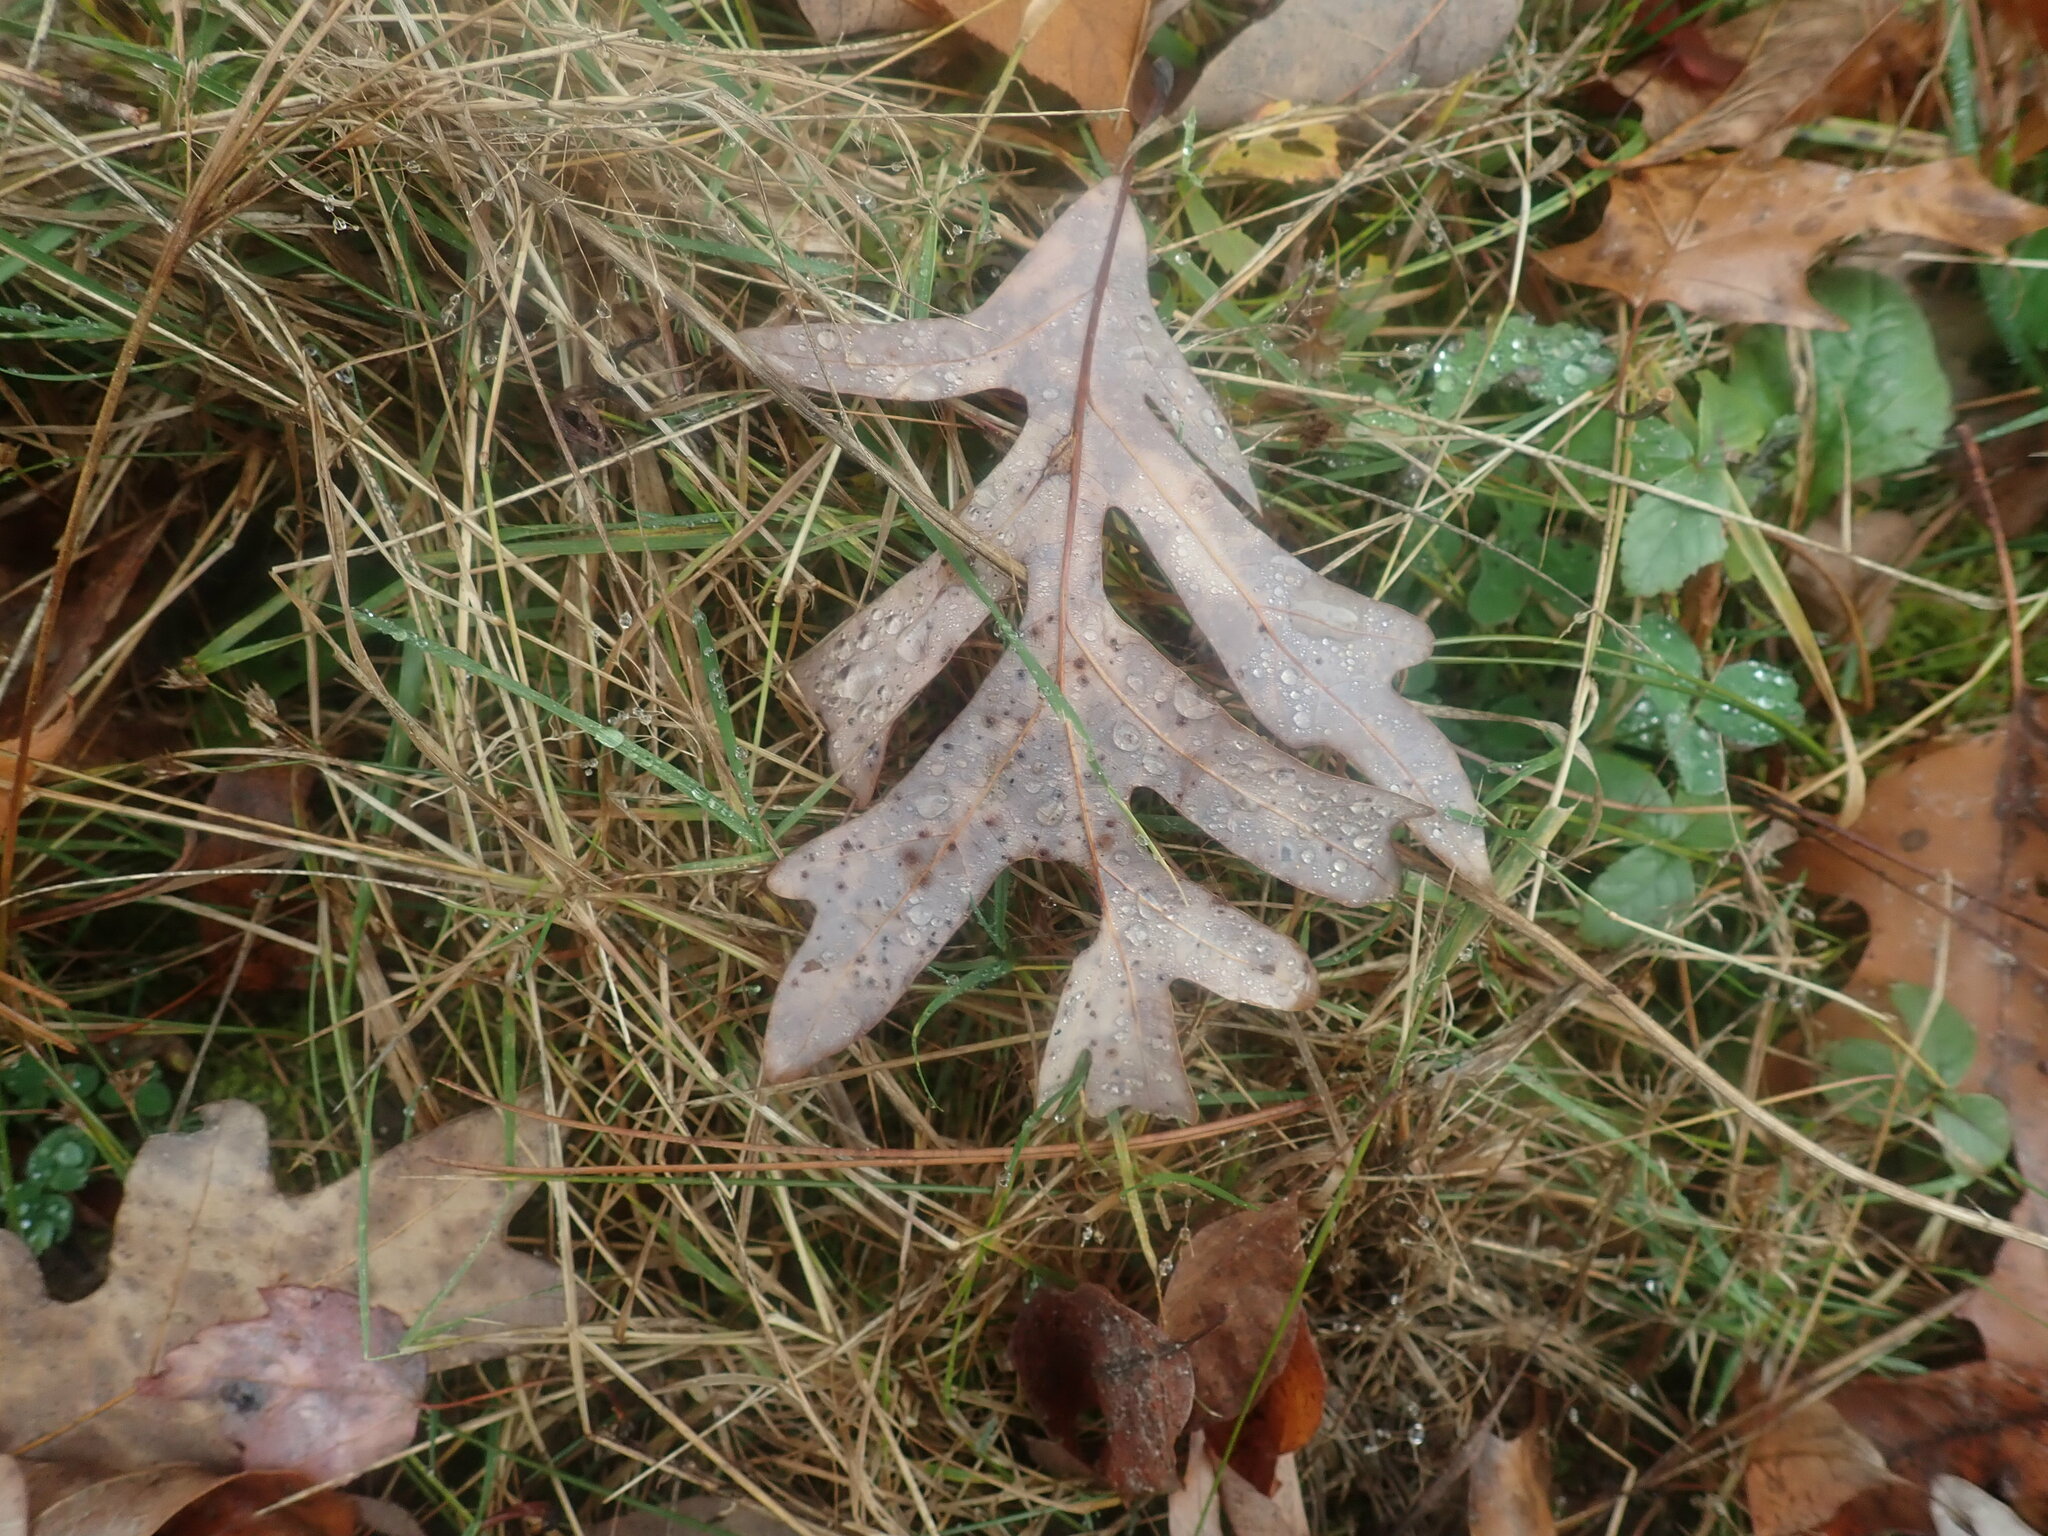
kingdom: Plantae
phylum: Tracheophyta
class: Magnoliopsida
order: Fagales
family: Fagaceae
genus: Quercus
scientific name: Quercus alba
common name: White oak
